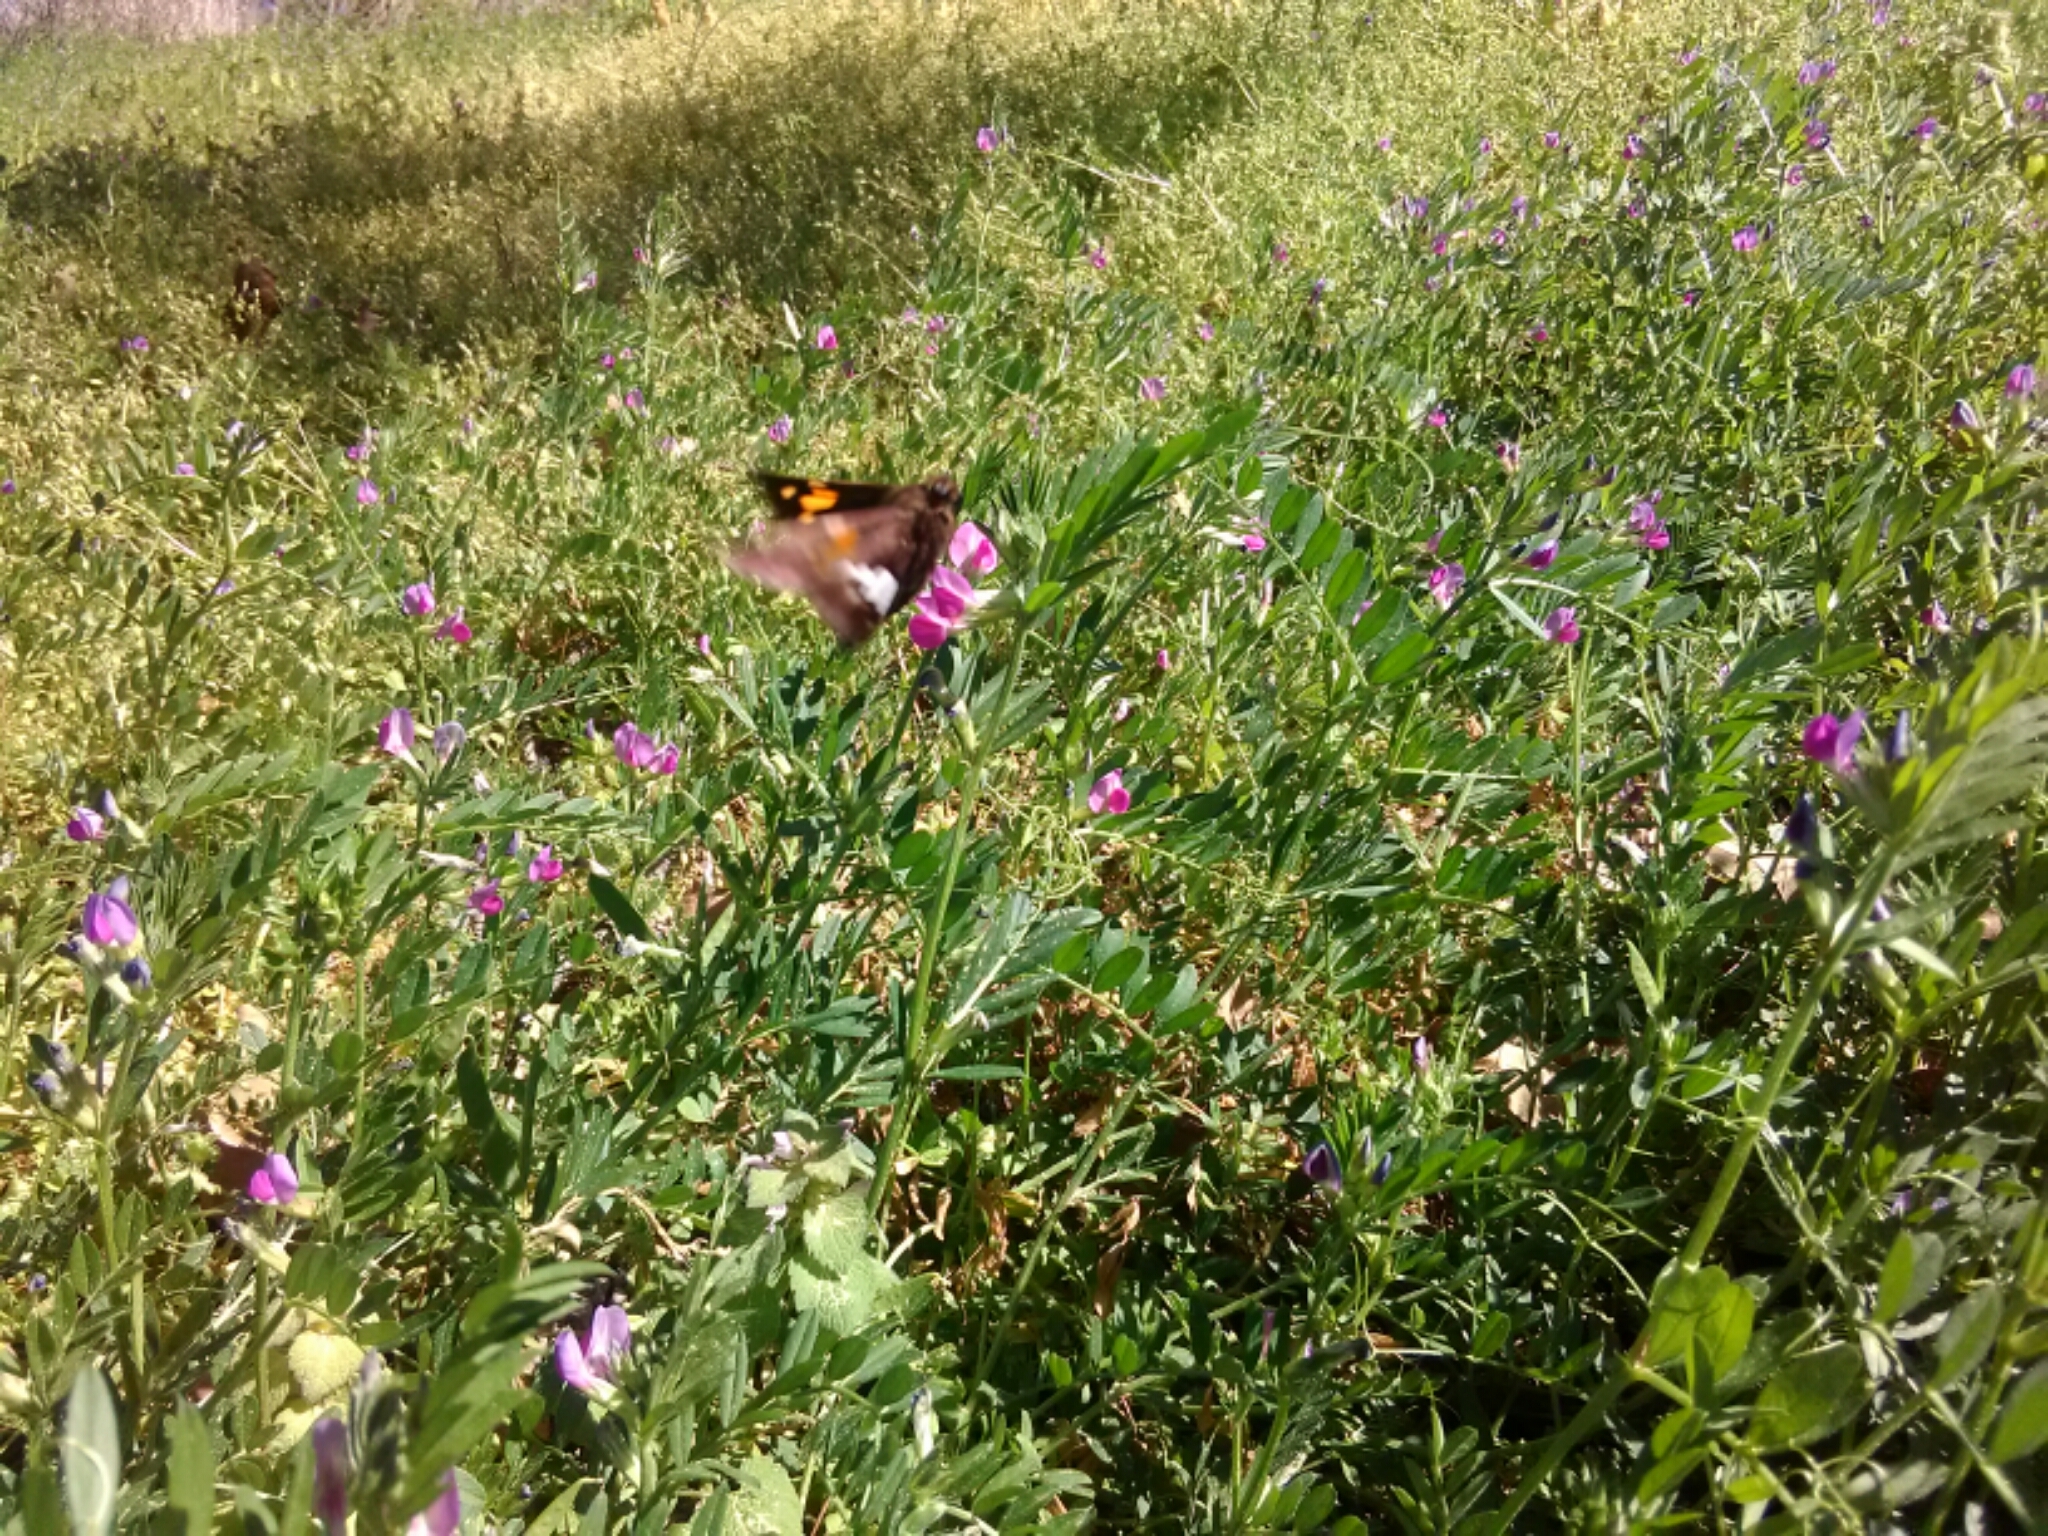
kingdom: Animalia
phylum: Arthropoda
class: Insecta
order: Lepidoptera
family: Hesperiidae
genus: Epargyreus
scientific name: Epargyreus clarus
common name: Silver-spotted skipper
